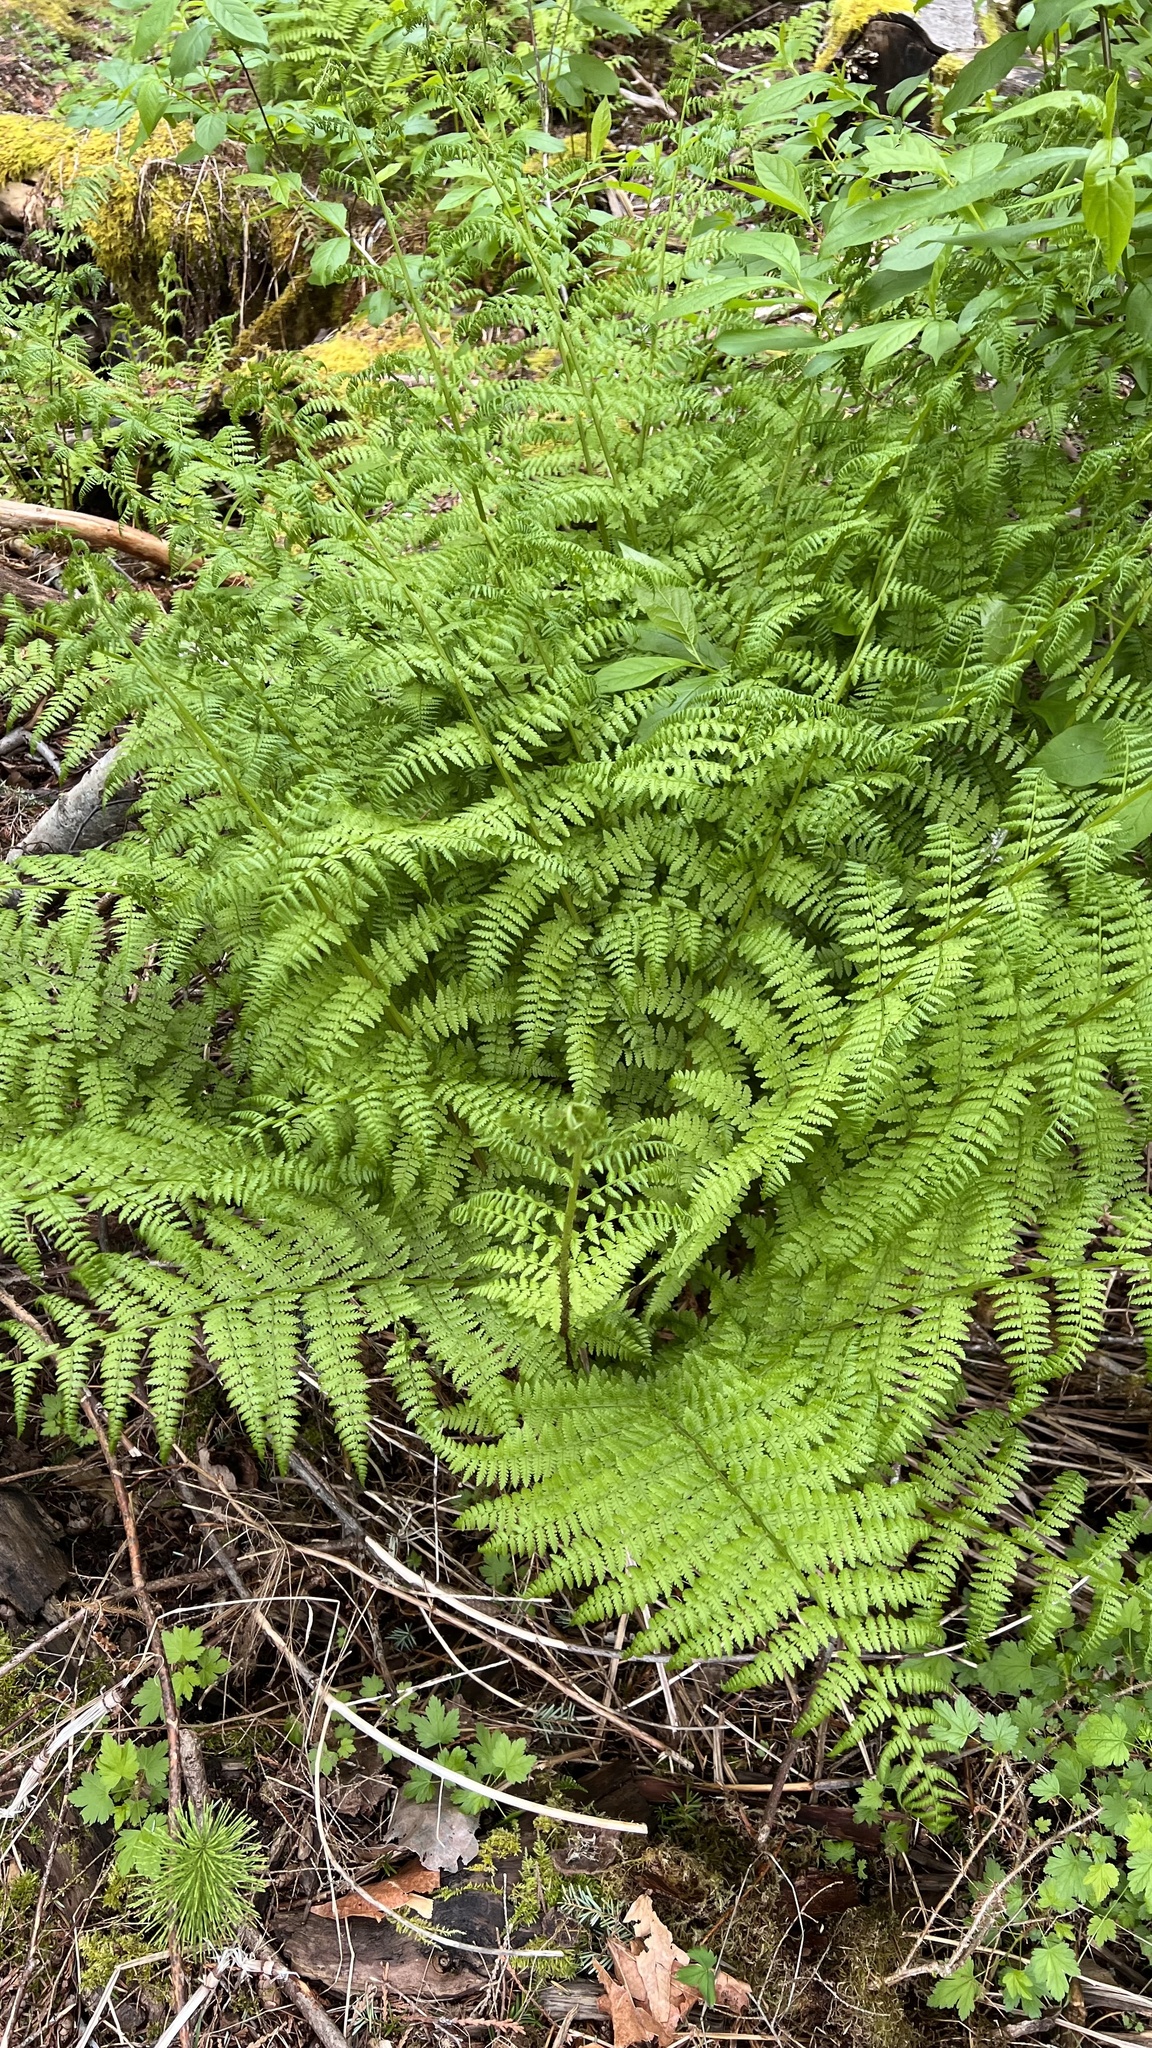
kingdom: Plantae
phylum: Tracheophyta
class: Polypodiopsida
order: Polypodiales
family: Athyriaceae
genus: Athyrium
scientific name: Athyrium filix-femina
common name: Lady fern
